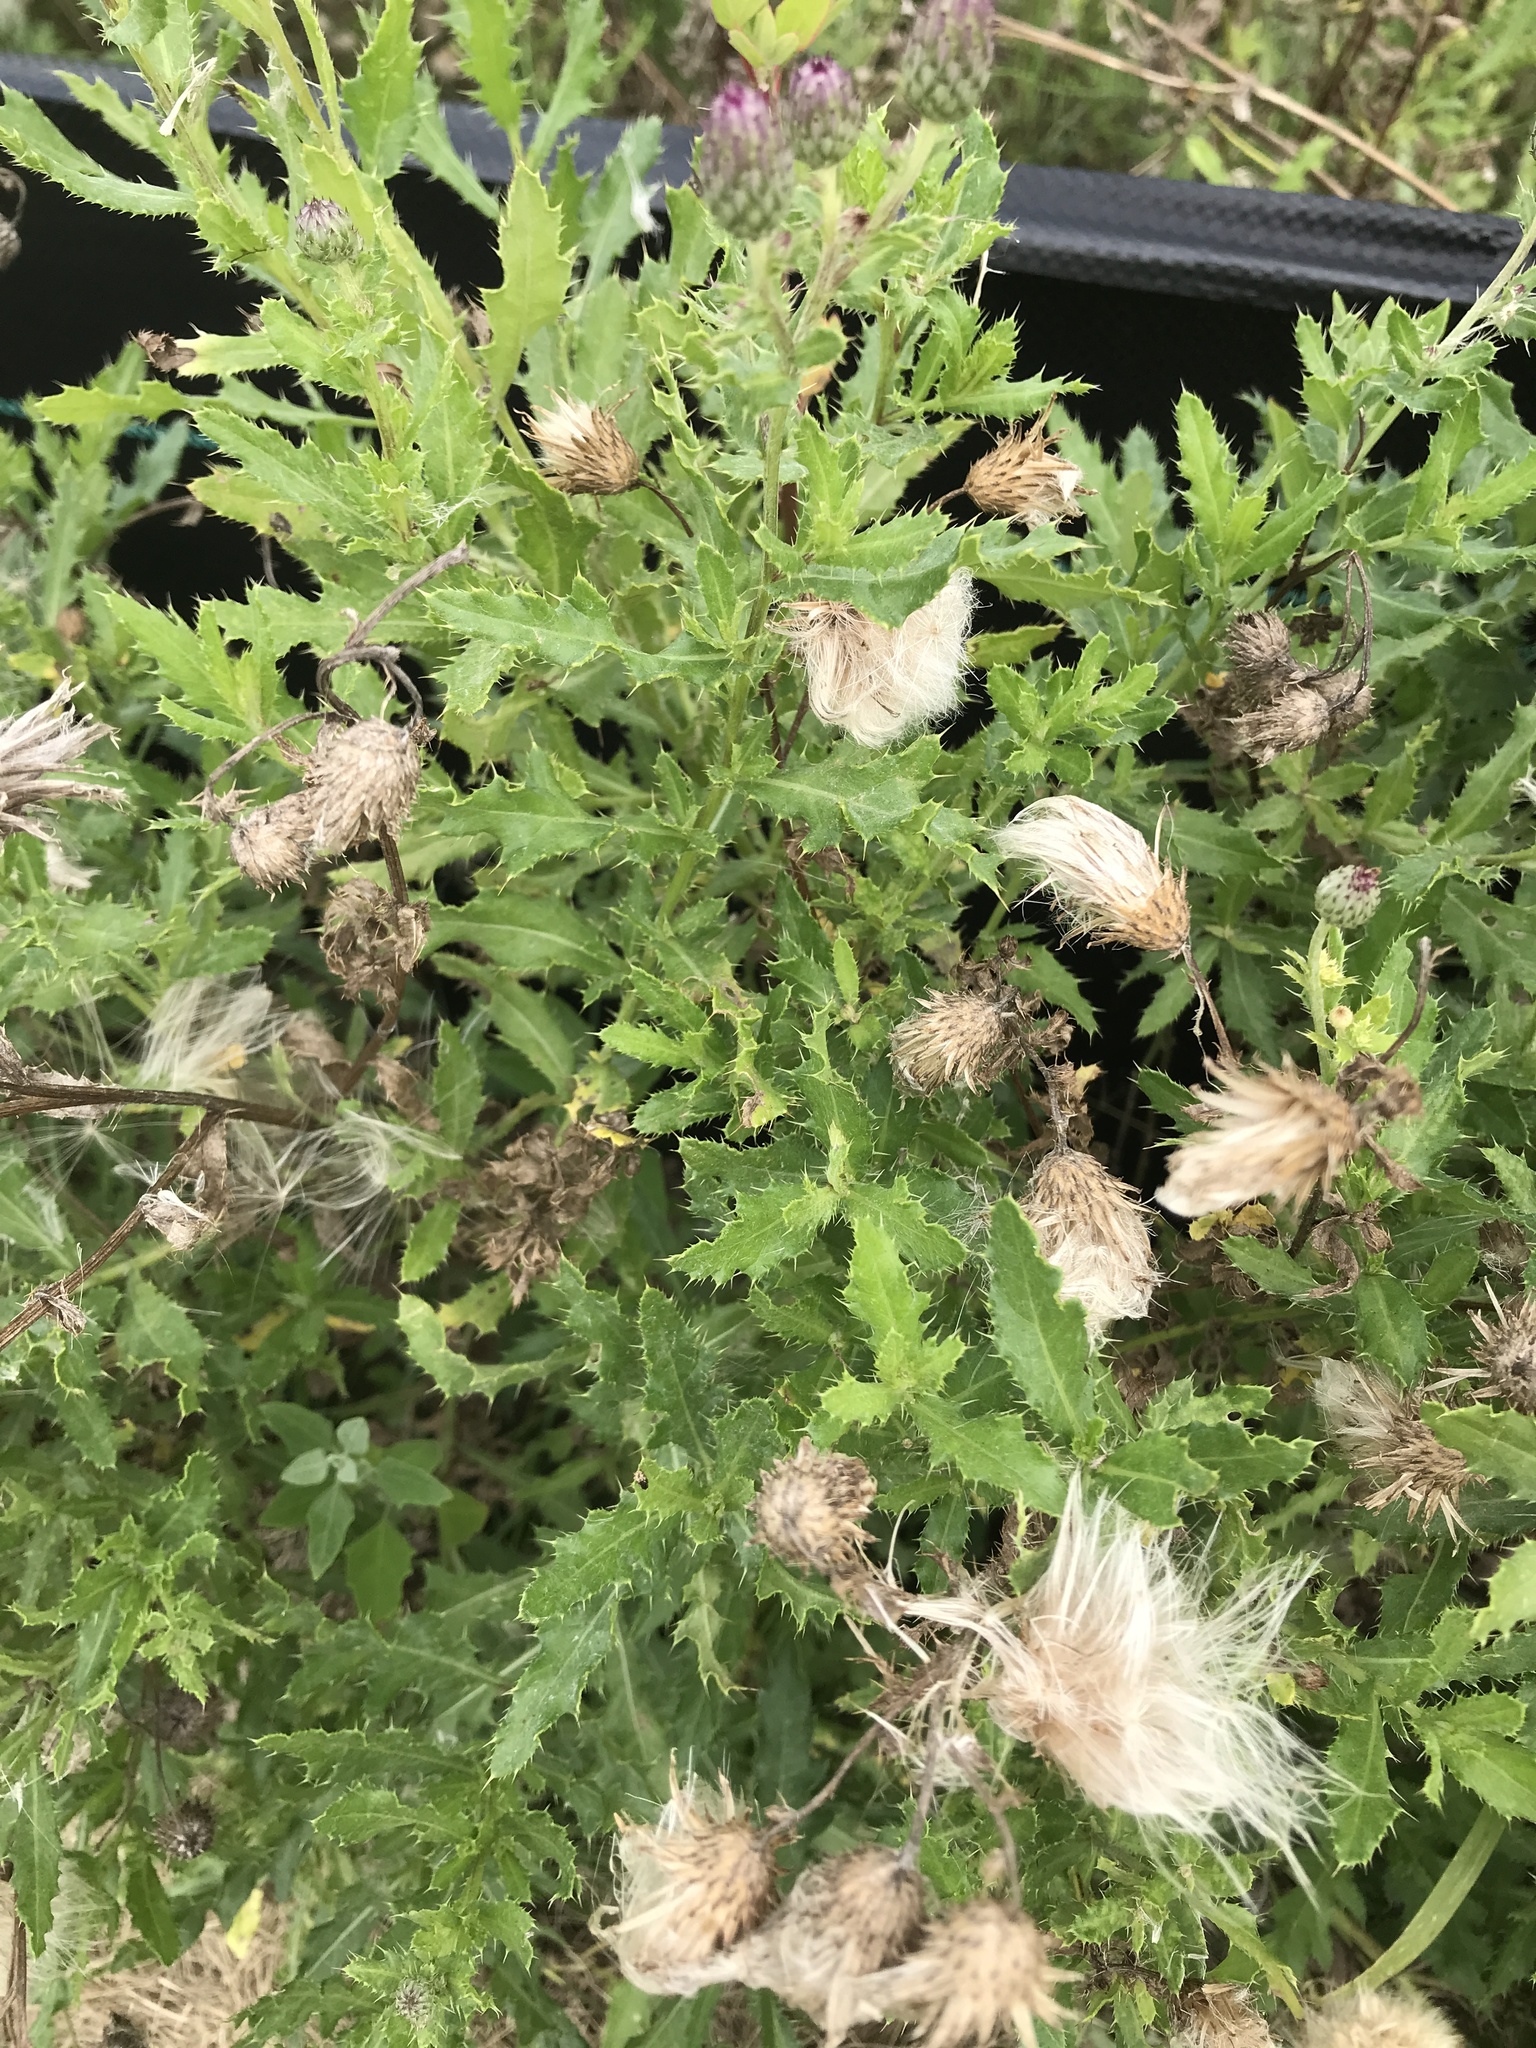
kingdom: Plantae
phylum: Tracheophyta
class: Magnoliopsida
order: Asterales
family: Asteraceae
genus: Cirsium
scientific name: Cirsium arvense
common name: Creeping thistle
